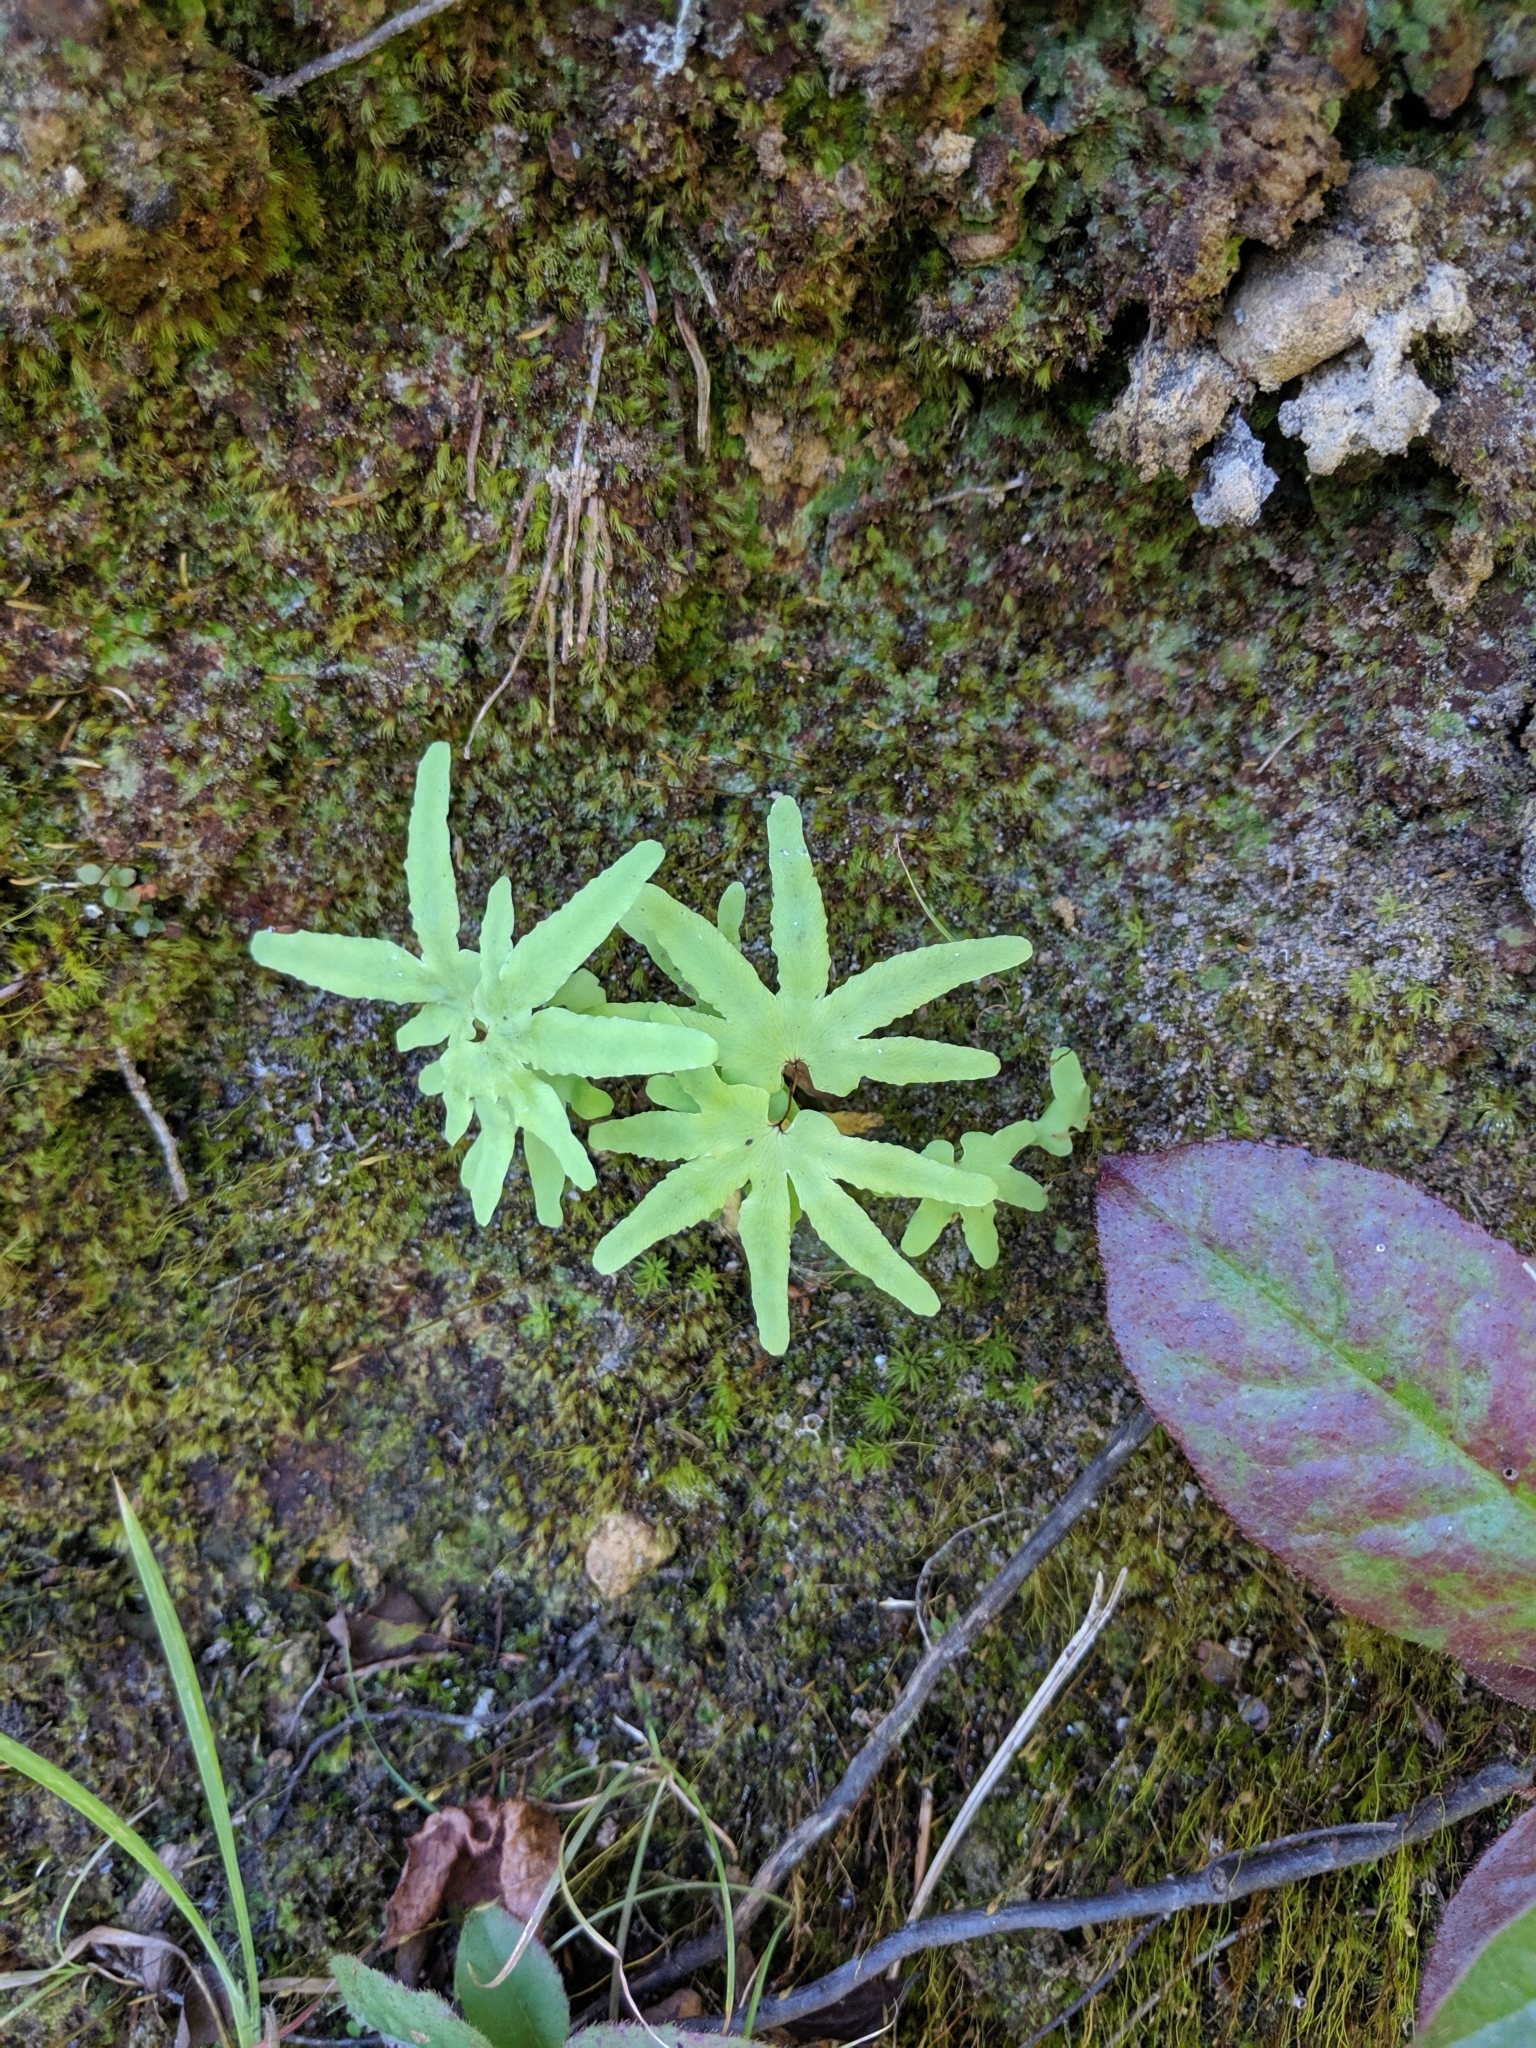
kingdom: Plantae
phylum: Tracheophyta
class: Polypodiopsida
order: Schizaeales
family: Lygodiaceae
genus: Lygodium
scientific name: Lygodium palmatum
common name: American climbing fern
